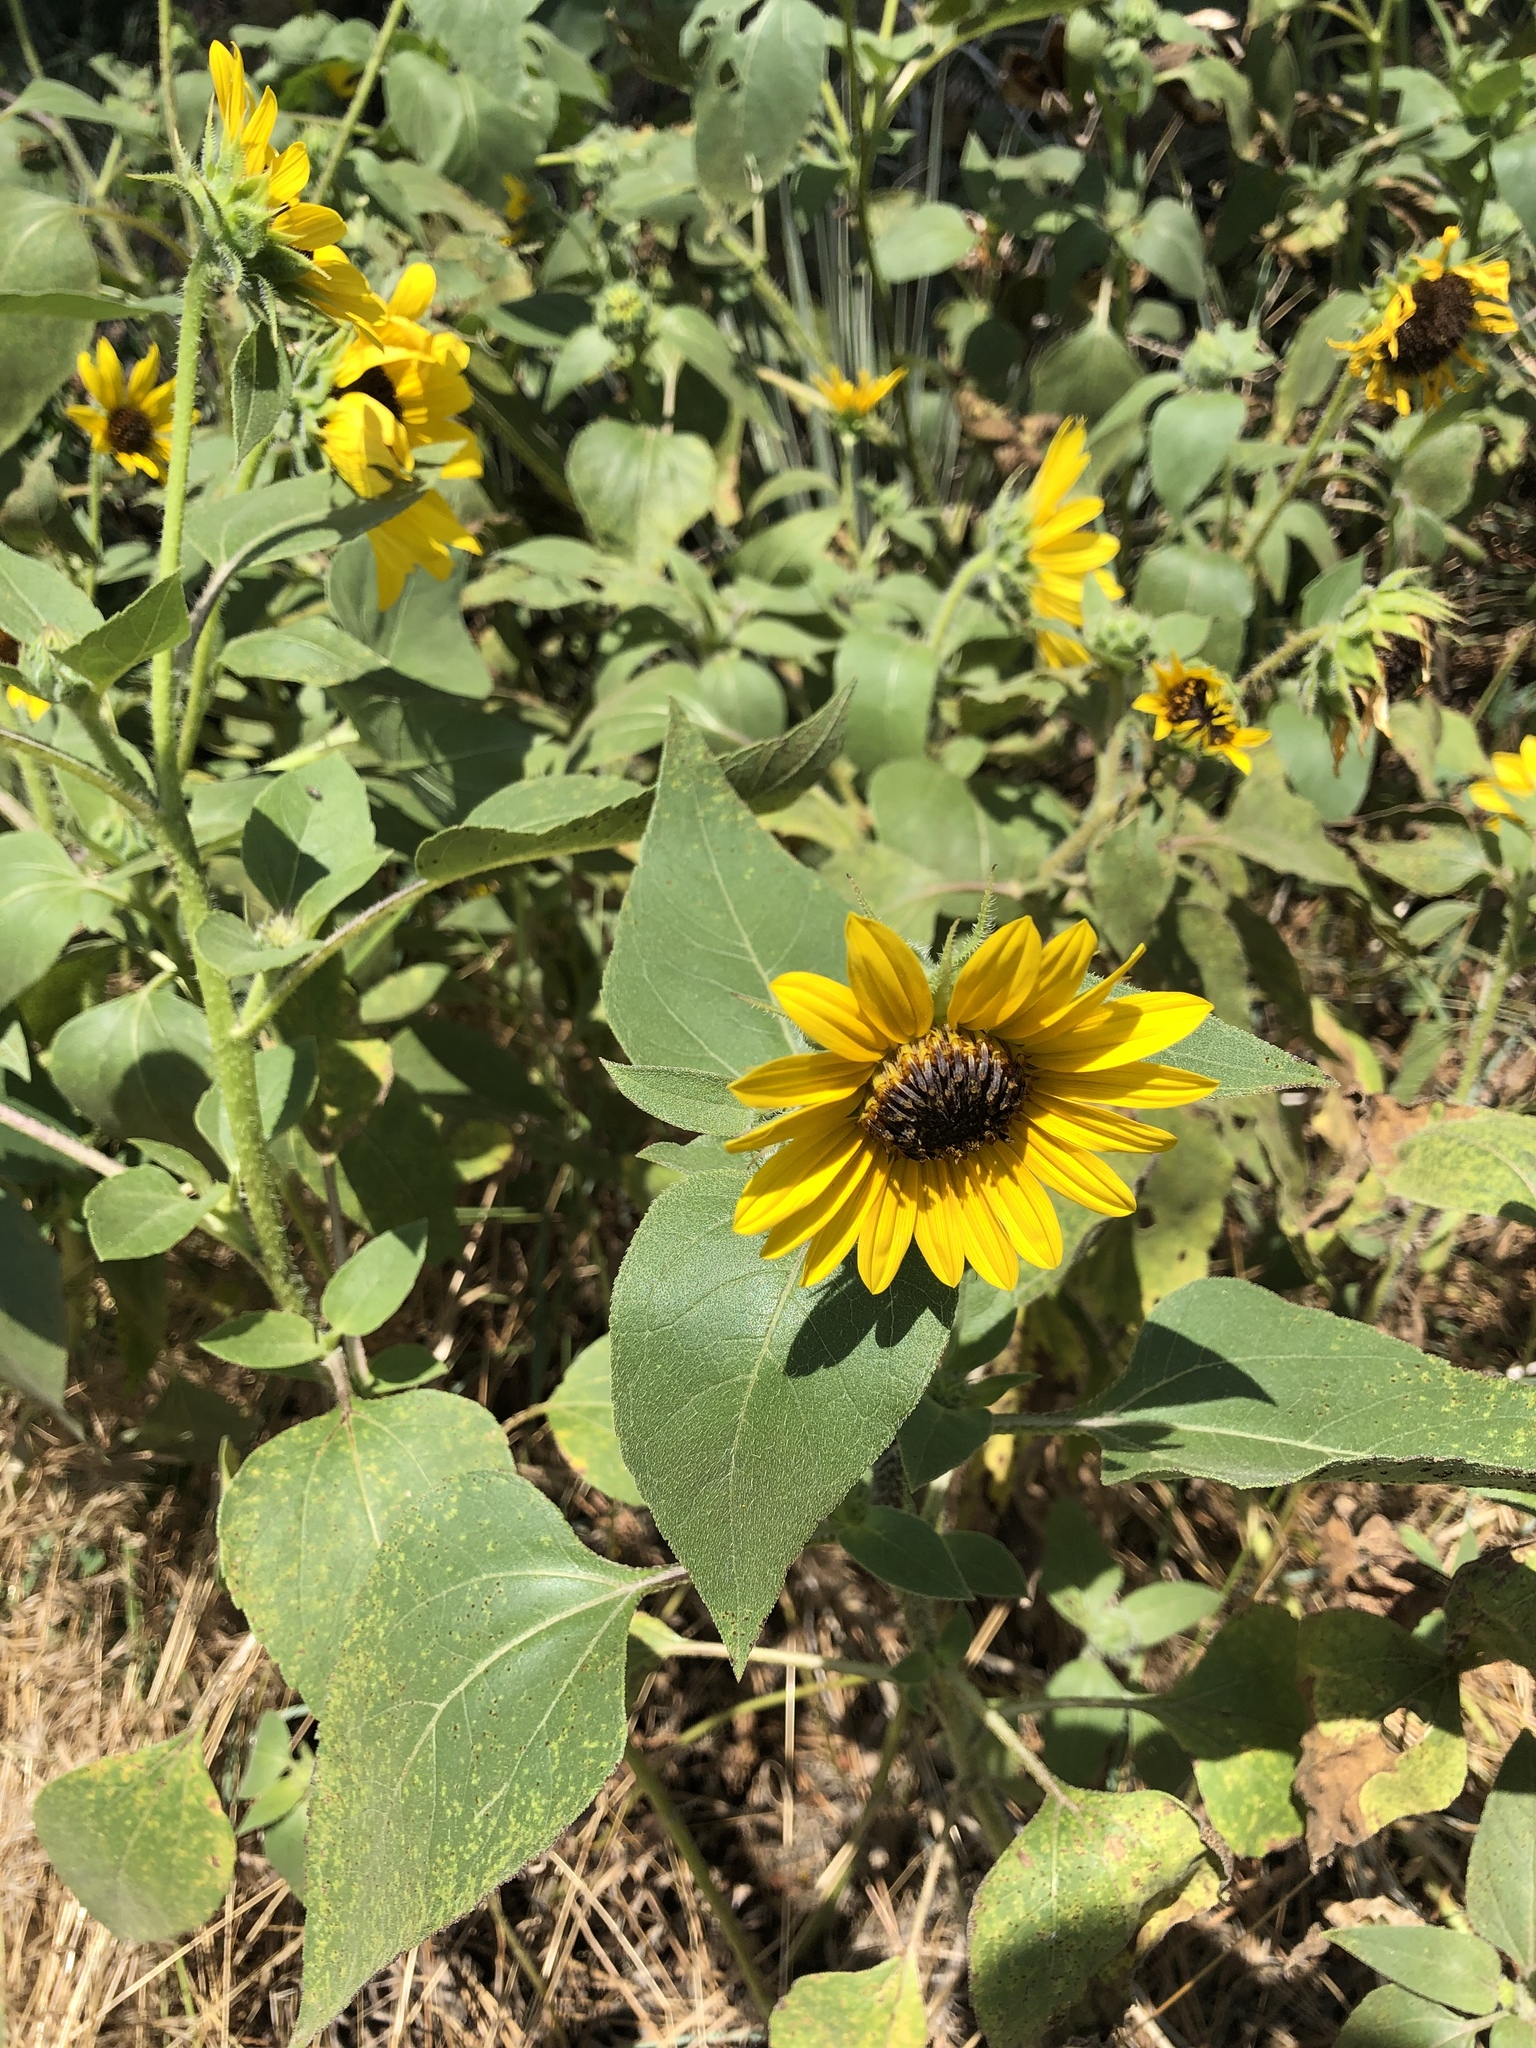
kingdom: Plantae
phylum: Tracheophyta
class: Magnoliopsida
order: Asterales
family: Asteraceae
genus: Helianthus
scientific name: Helianthus annuus
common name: Sunflower
